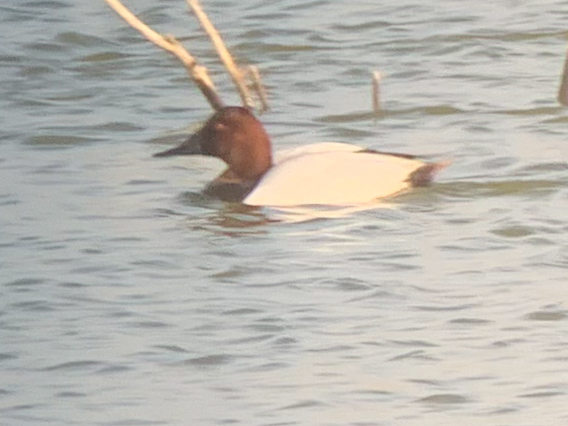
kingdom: Animalia
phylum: Chordata
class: Aves
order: Anseriformes
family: Anatidae
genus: Aythya
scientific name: Aythya valisineria
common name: Canvasback
